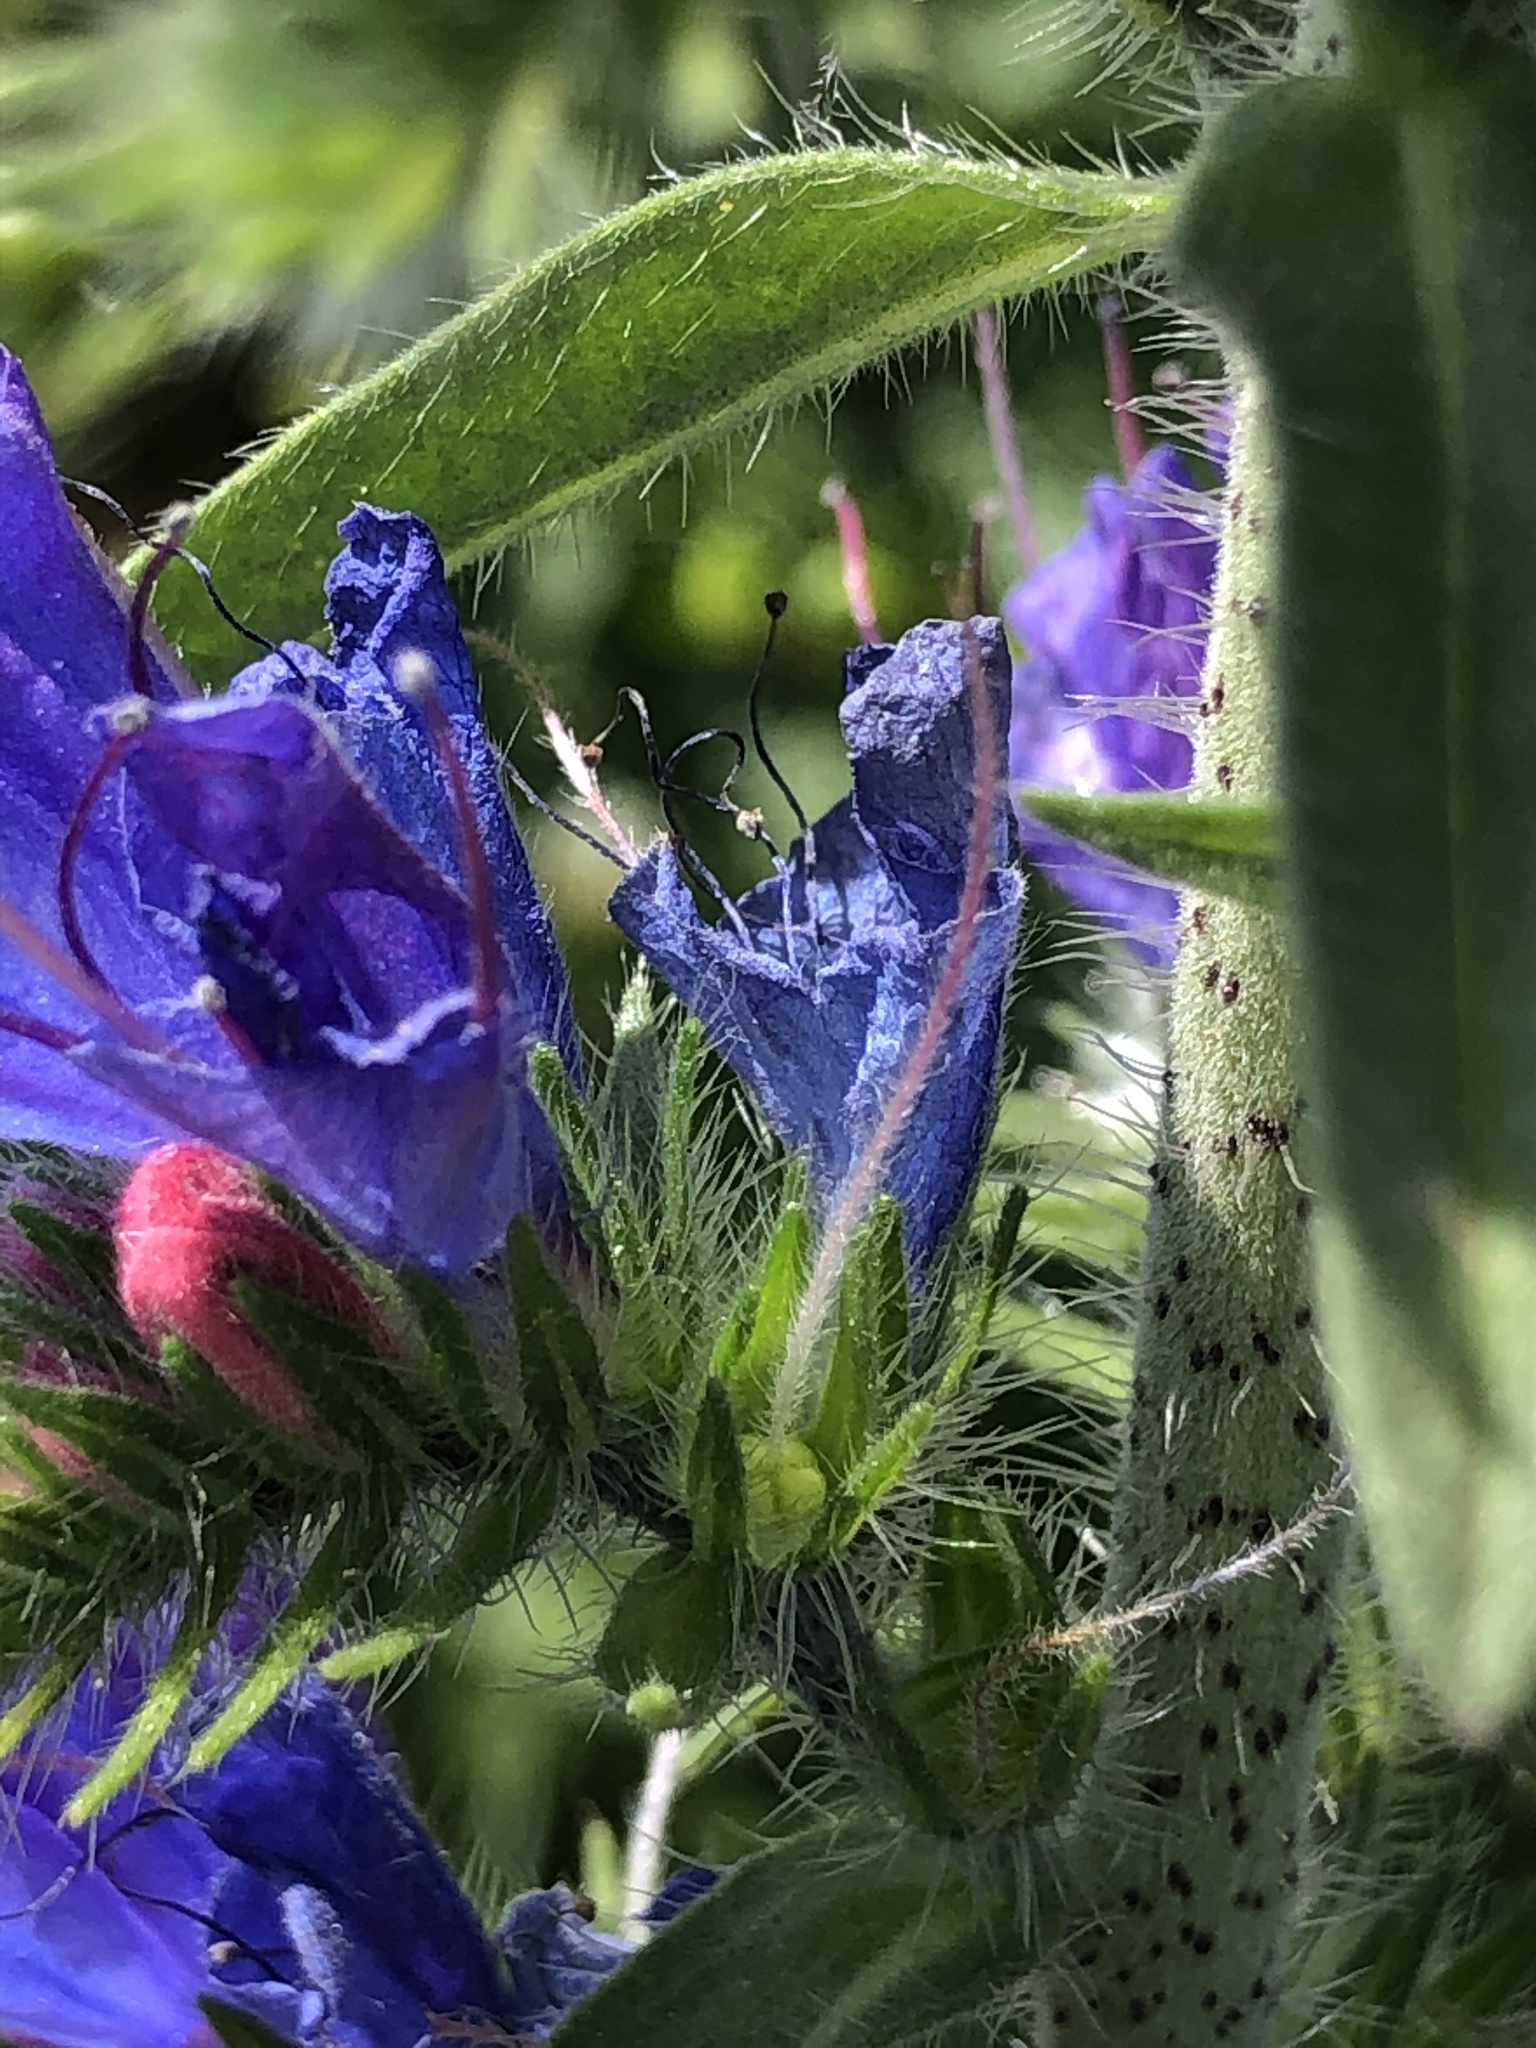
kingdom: Plantae
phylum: Tracheophyta
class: Magnoliopsida
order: Boraginales
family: Boraginaceae
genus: Echium
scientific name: Echium vulgare
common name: Common viper's bugloss
